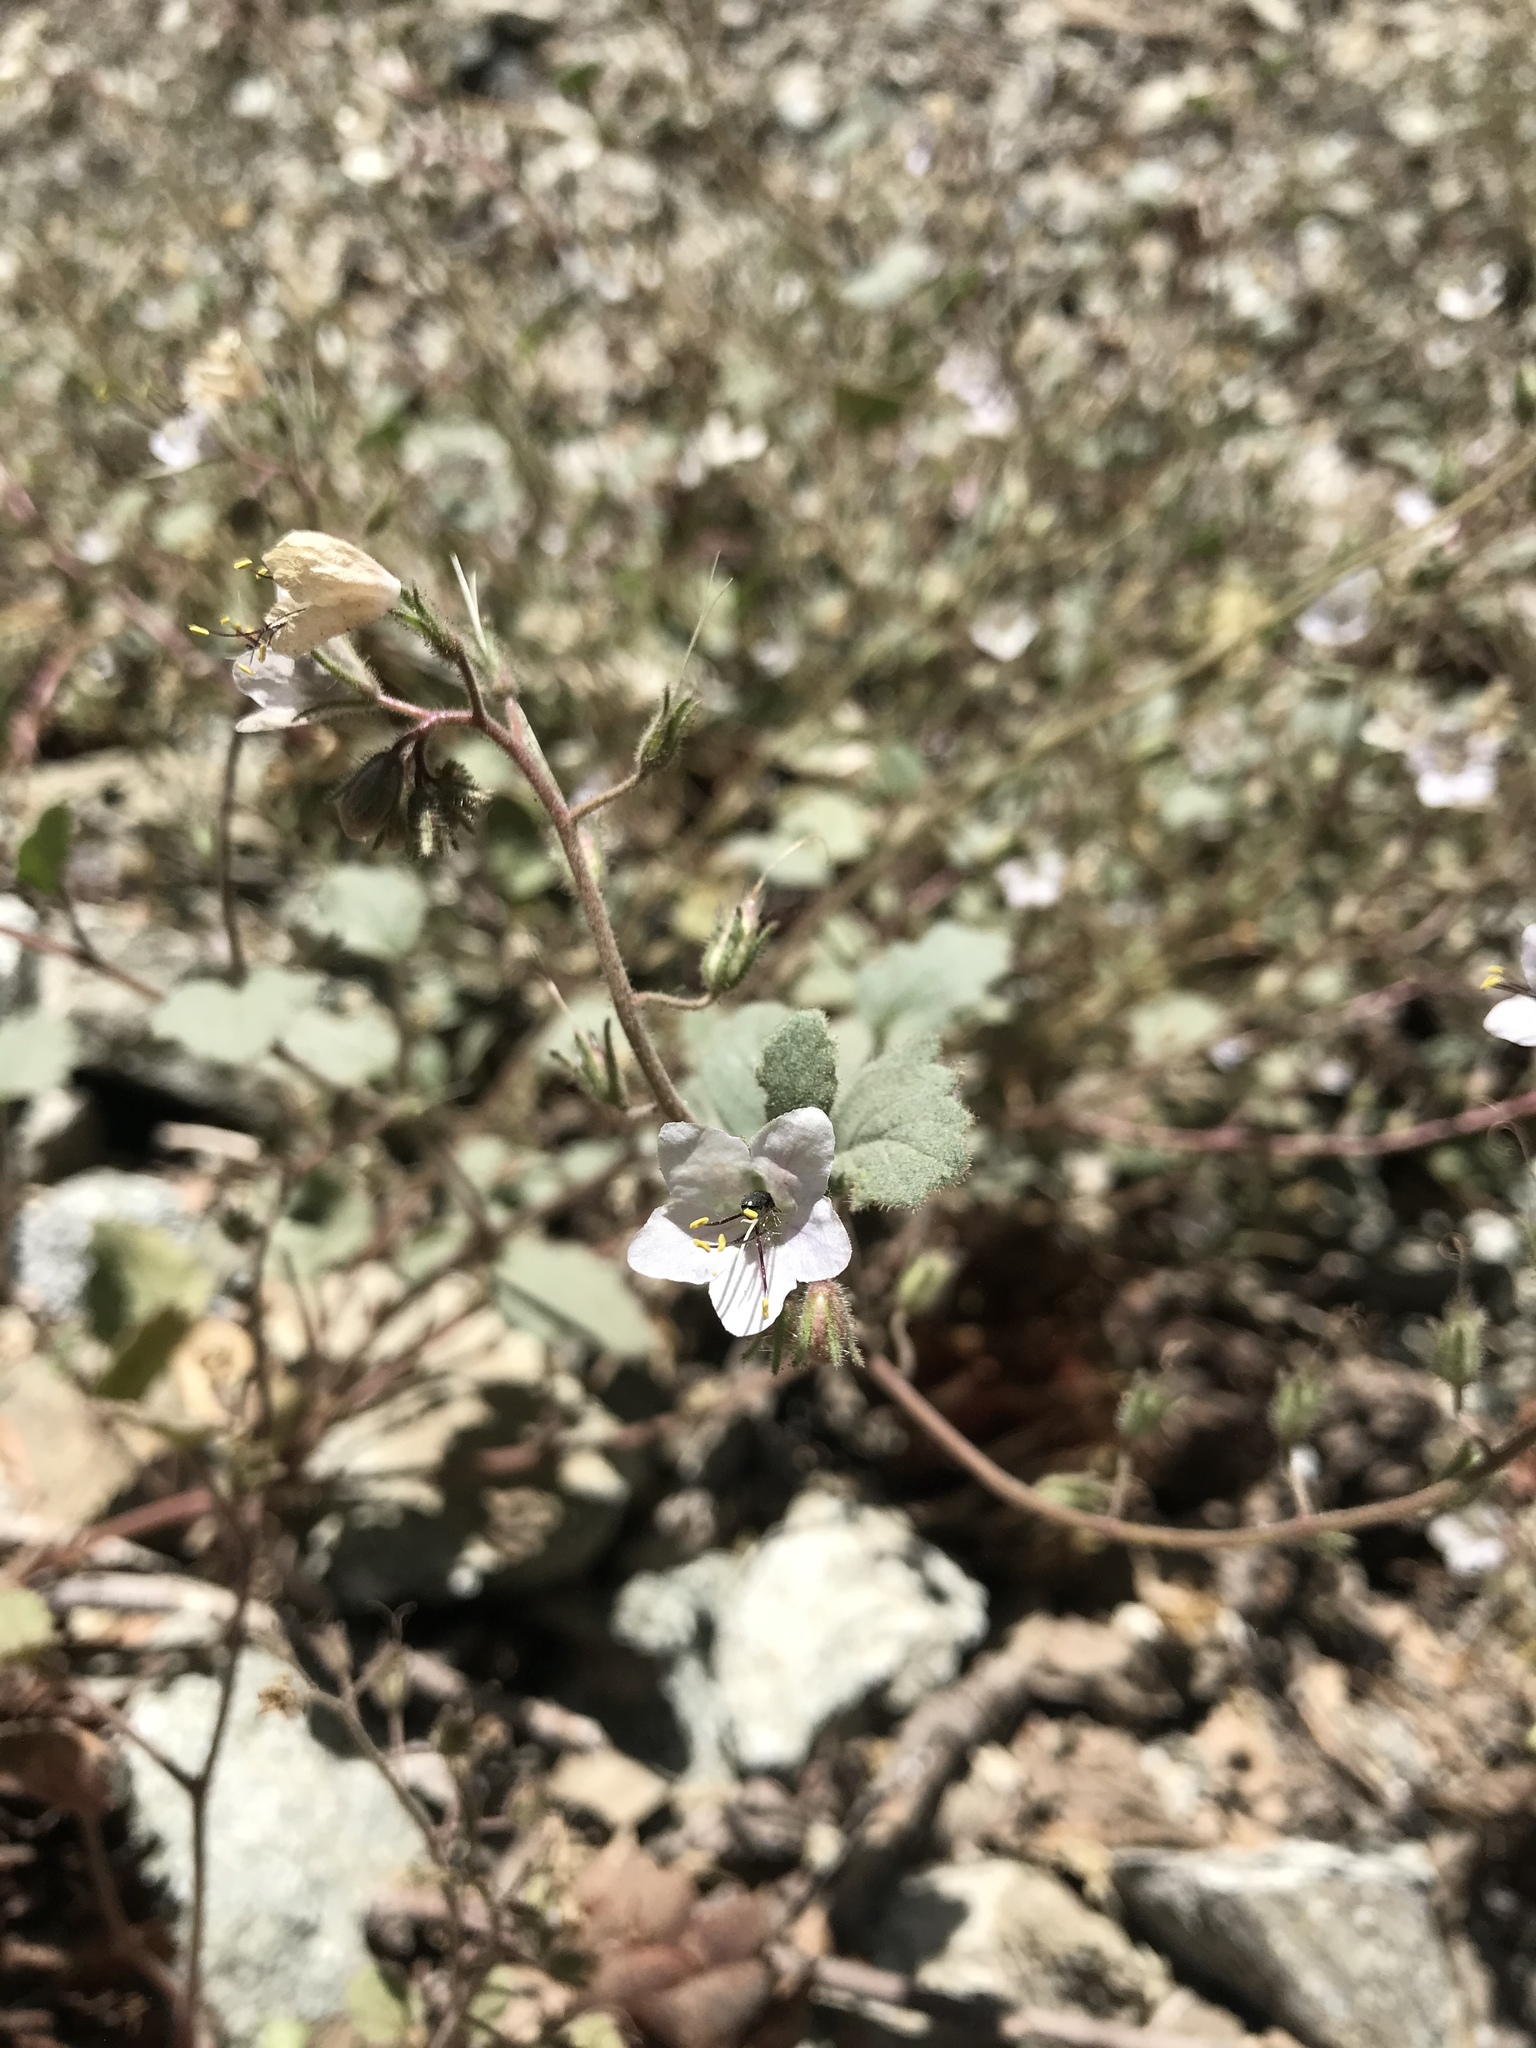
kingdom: Plantae
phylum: Tracheophyta
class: Magnoliopsida
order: Boraginales
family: Hydrophyllaceae
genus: Phacelia
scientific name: Phacelia longipes
